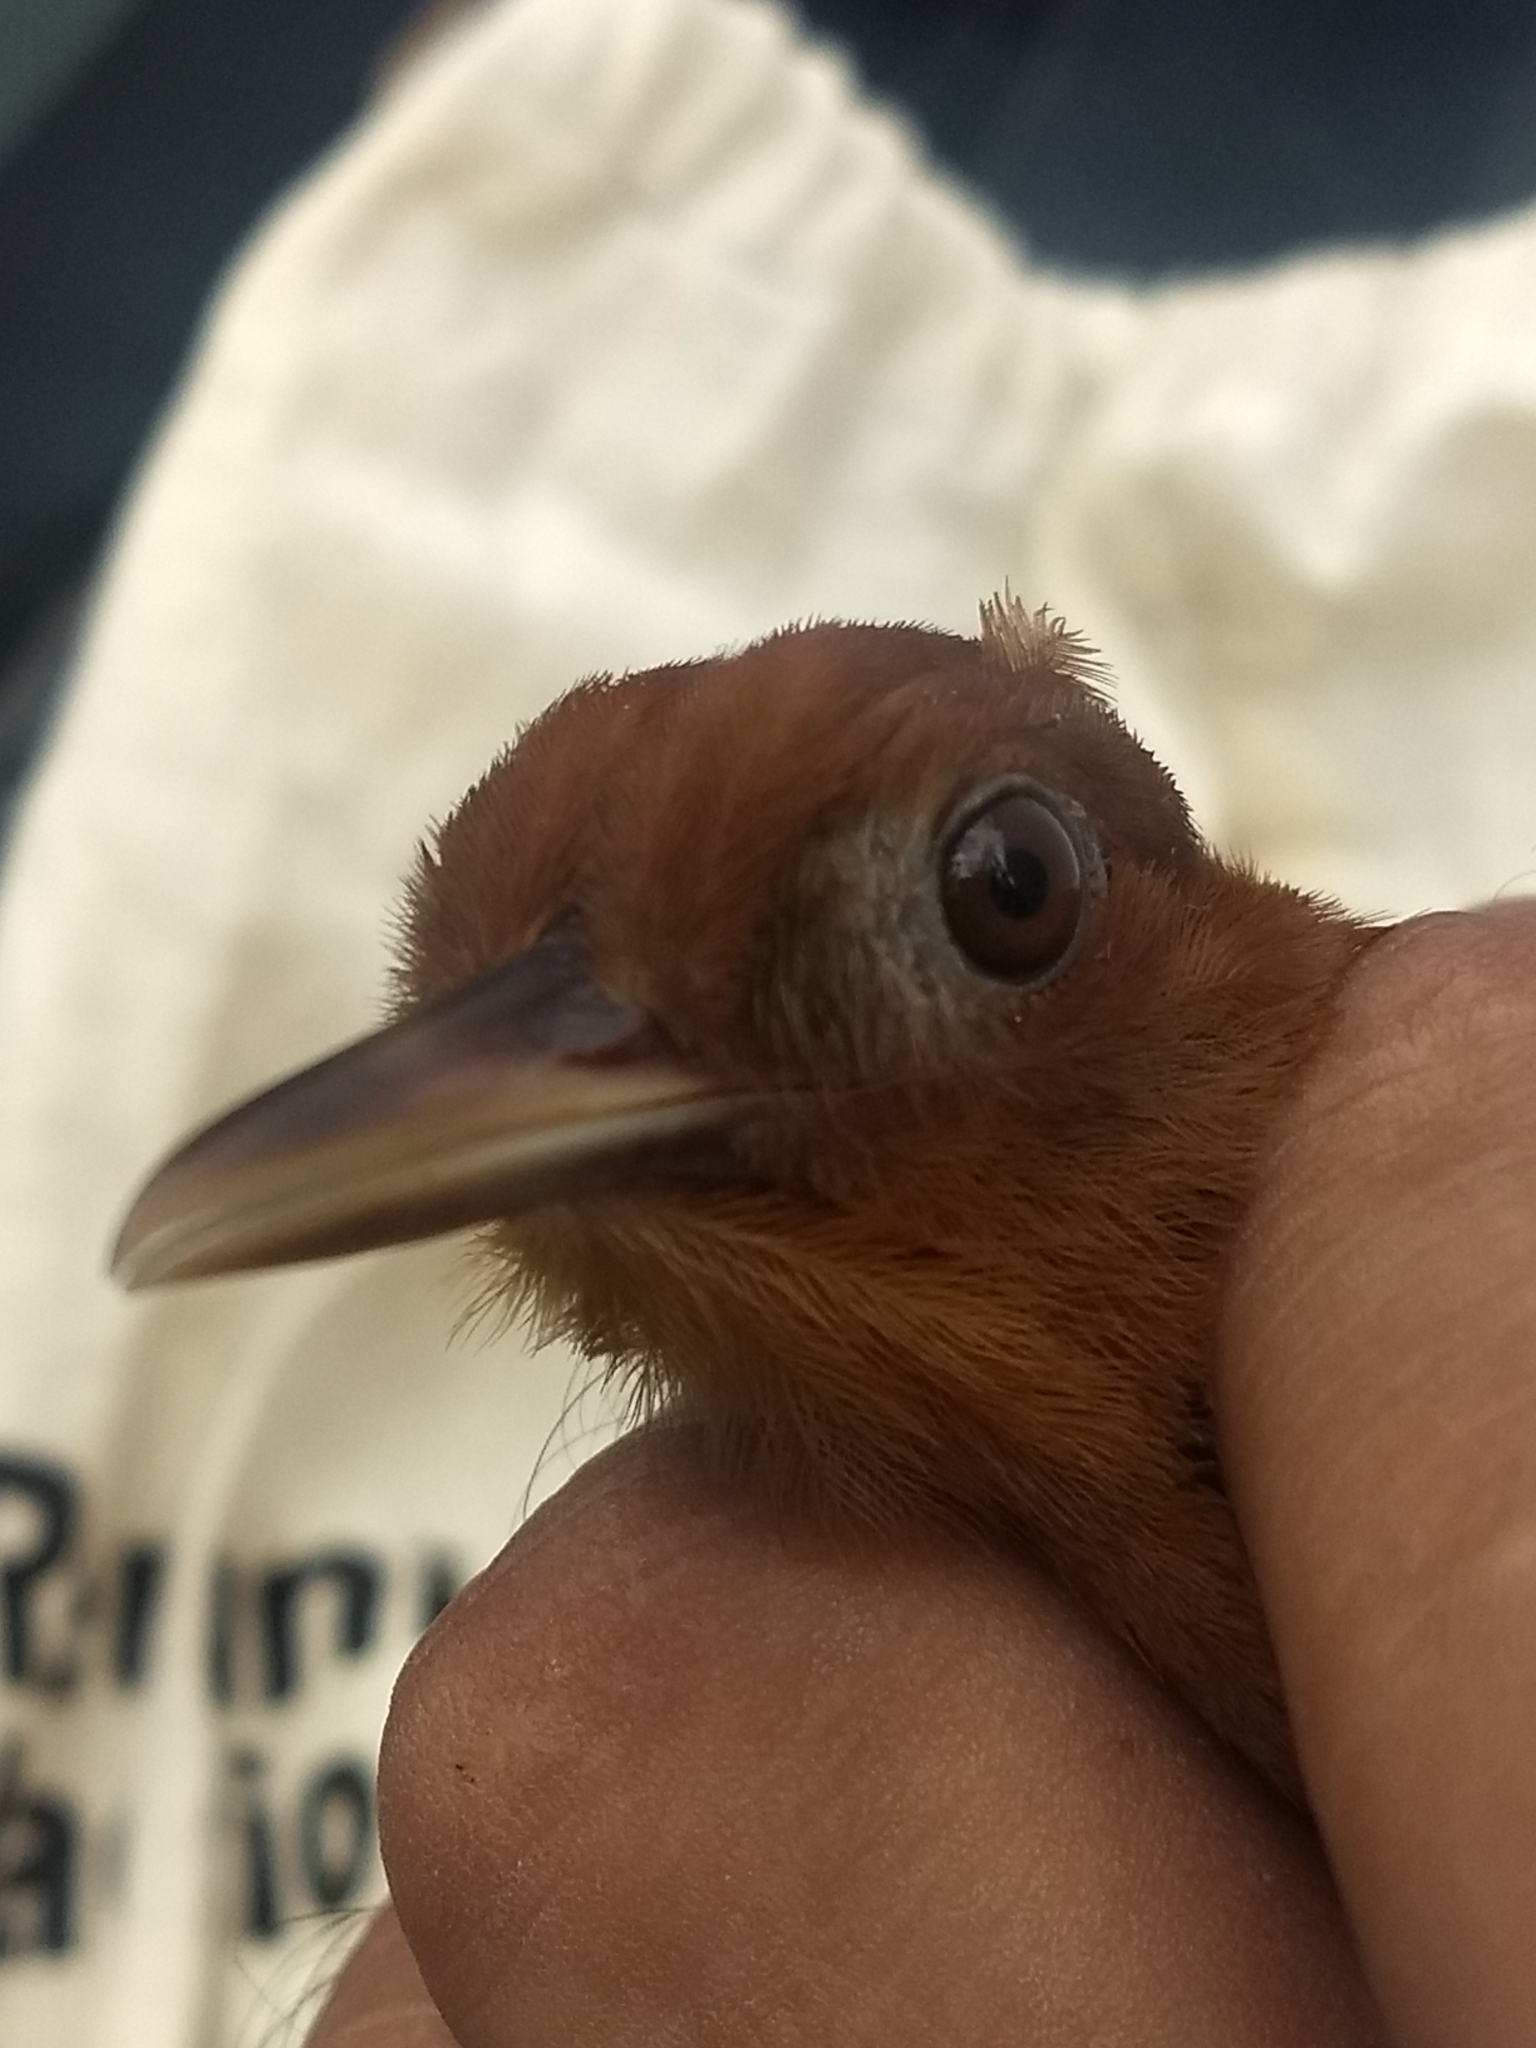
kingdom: Animalia
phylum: Chordata
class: Aves
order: Passeriformes
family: Furnariidae
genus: Dendrocincla
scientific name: Dendrocincla homochroa
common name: Ruddy woodcreeper
